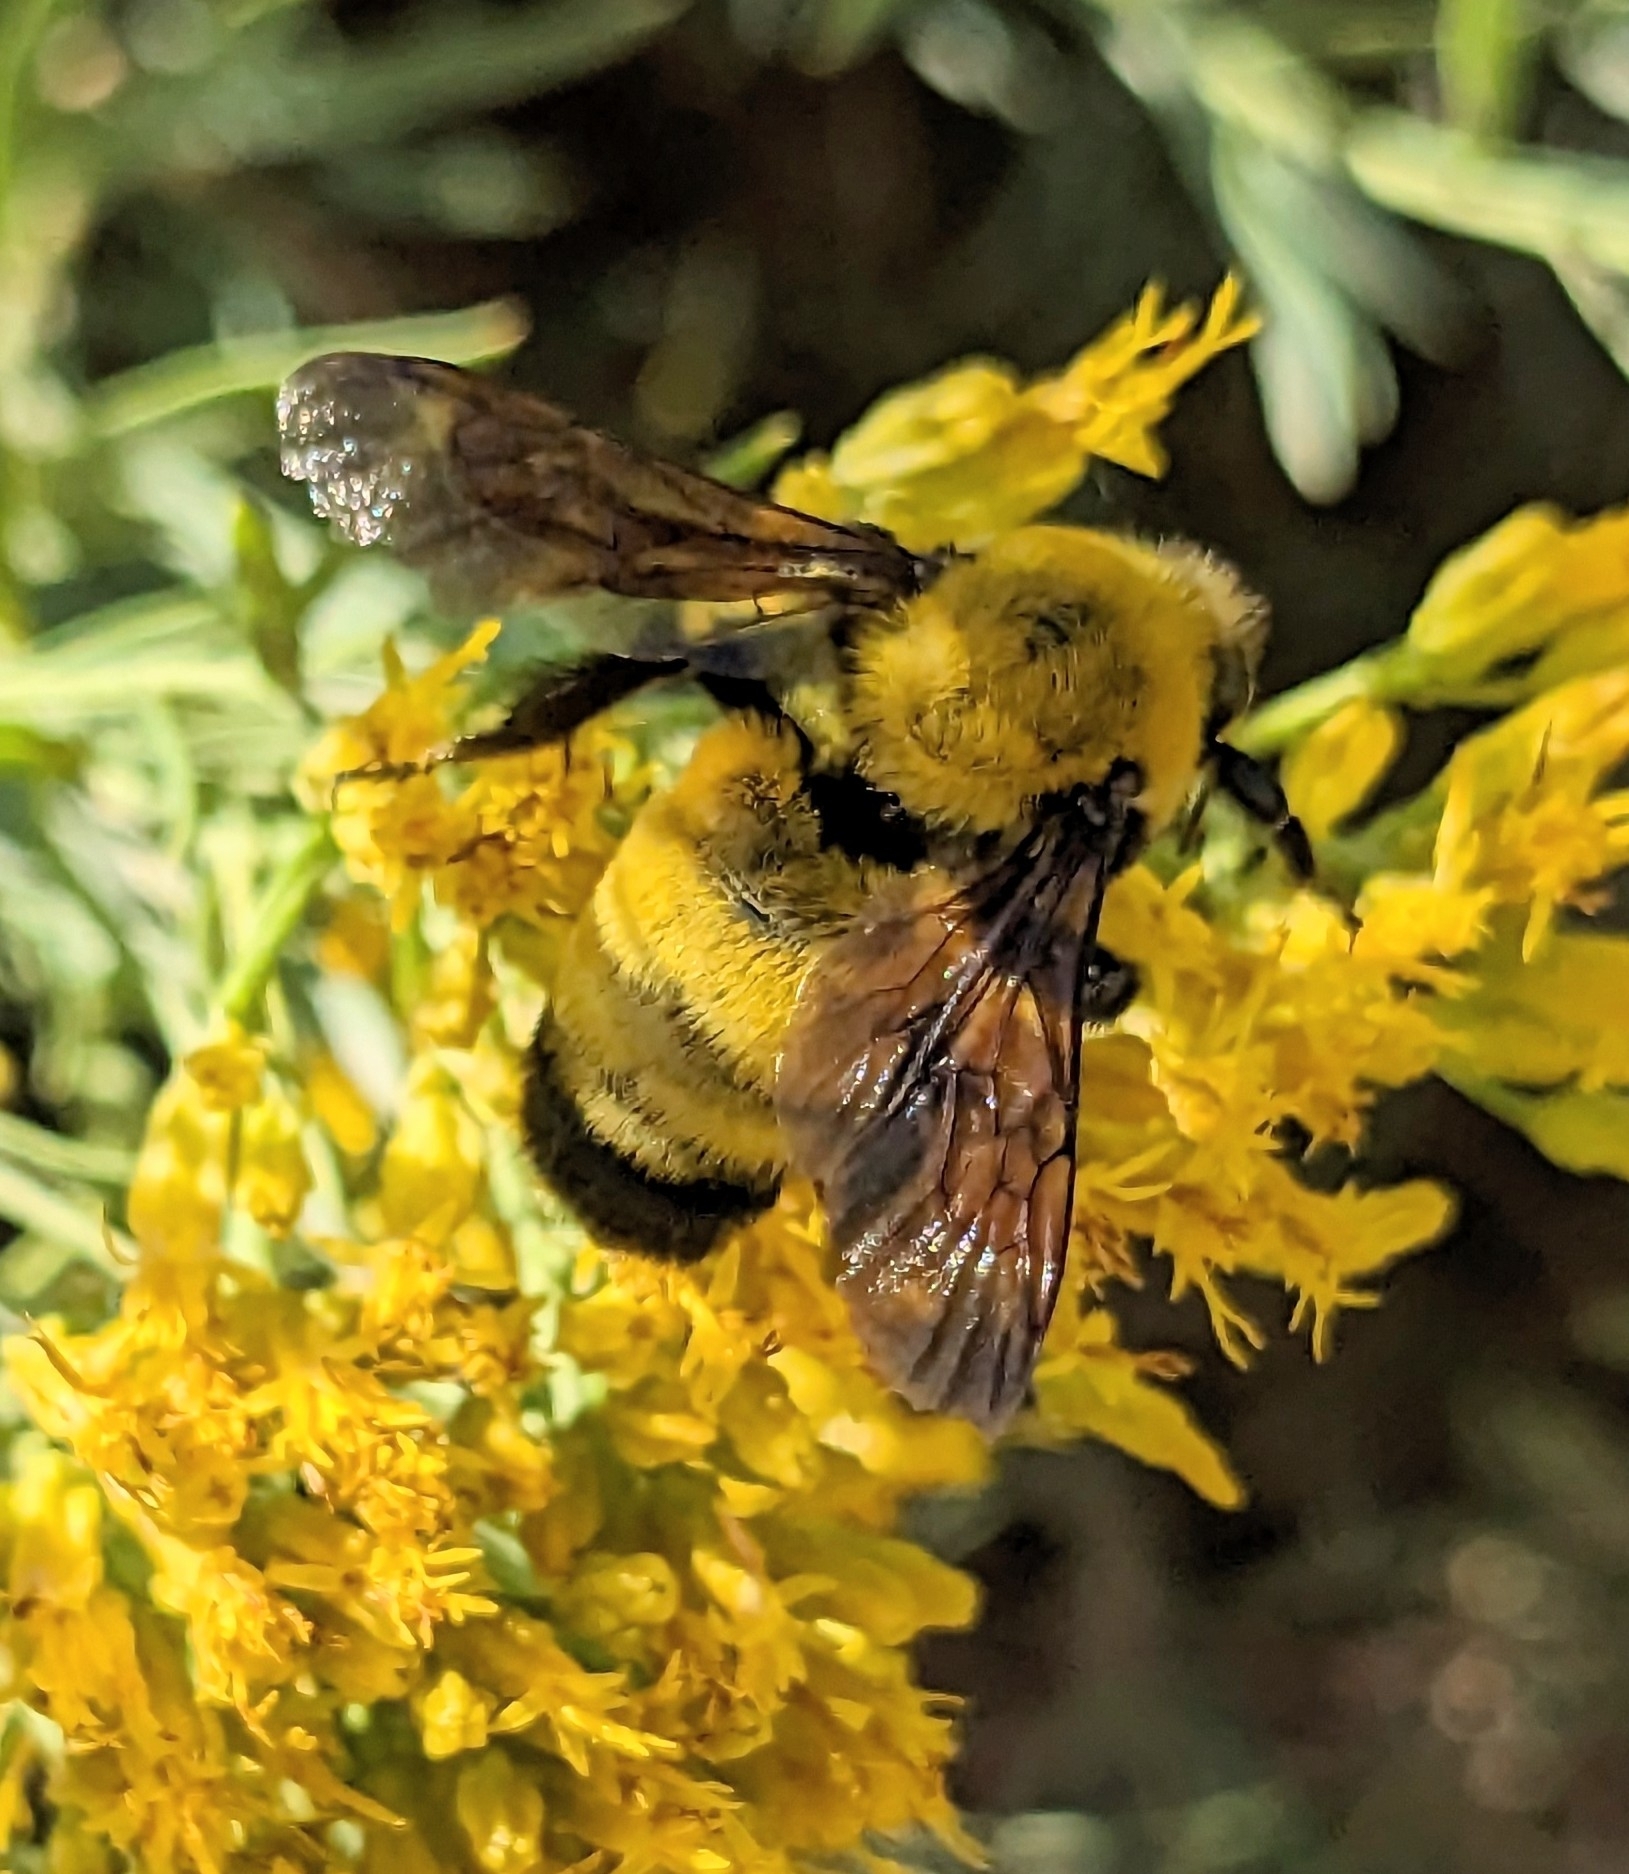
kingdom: Animalia
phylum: Arthropoda
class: Insecta
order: Hymenoptera
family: Apidae
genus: Bombus
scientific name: Bombus morrisoni
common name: Morrison bumble bee
